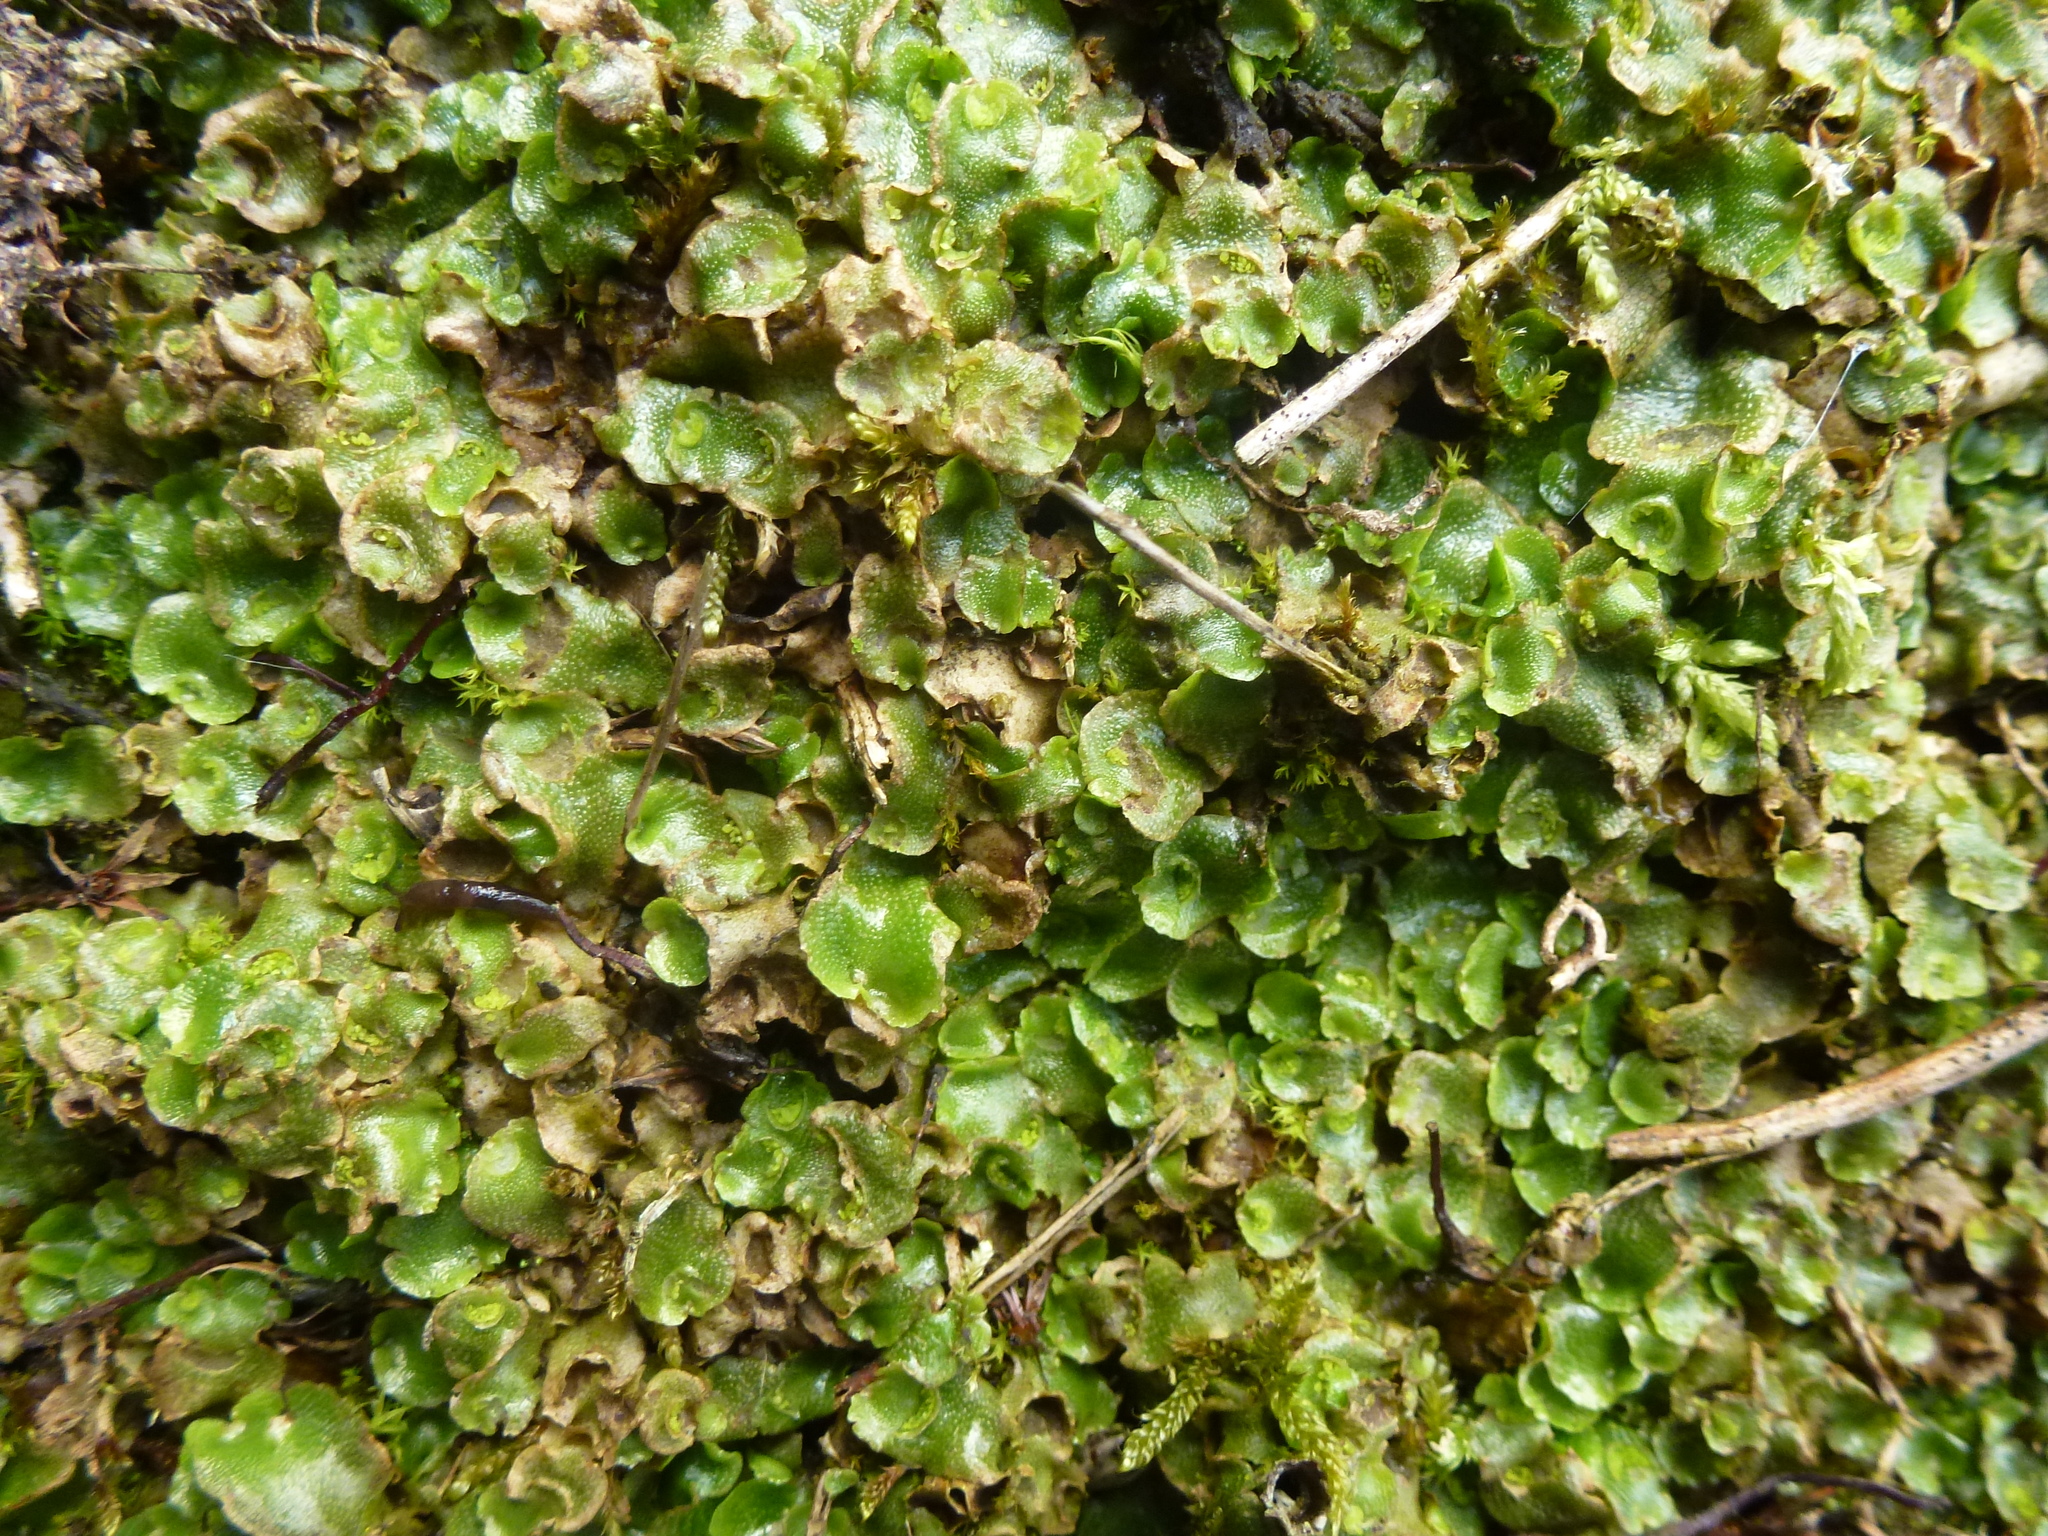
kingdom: Plantae
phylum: Marchantiophyta
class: Marchantiopsida
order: Lunulariales
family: Lunulariaceae
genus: Lunularia
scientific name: Lunularia cruciata
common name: Crescent-cup liverwort
